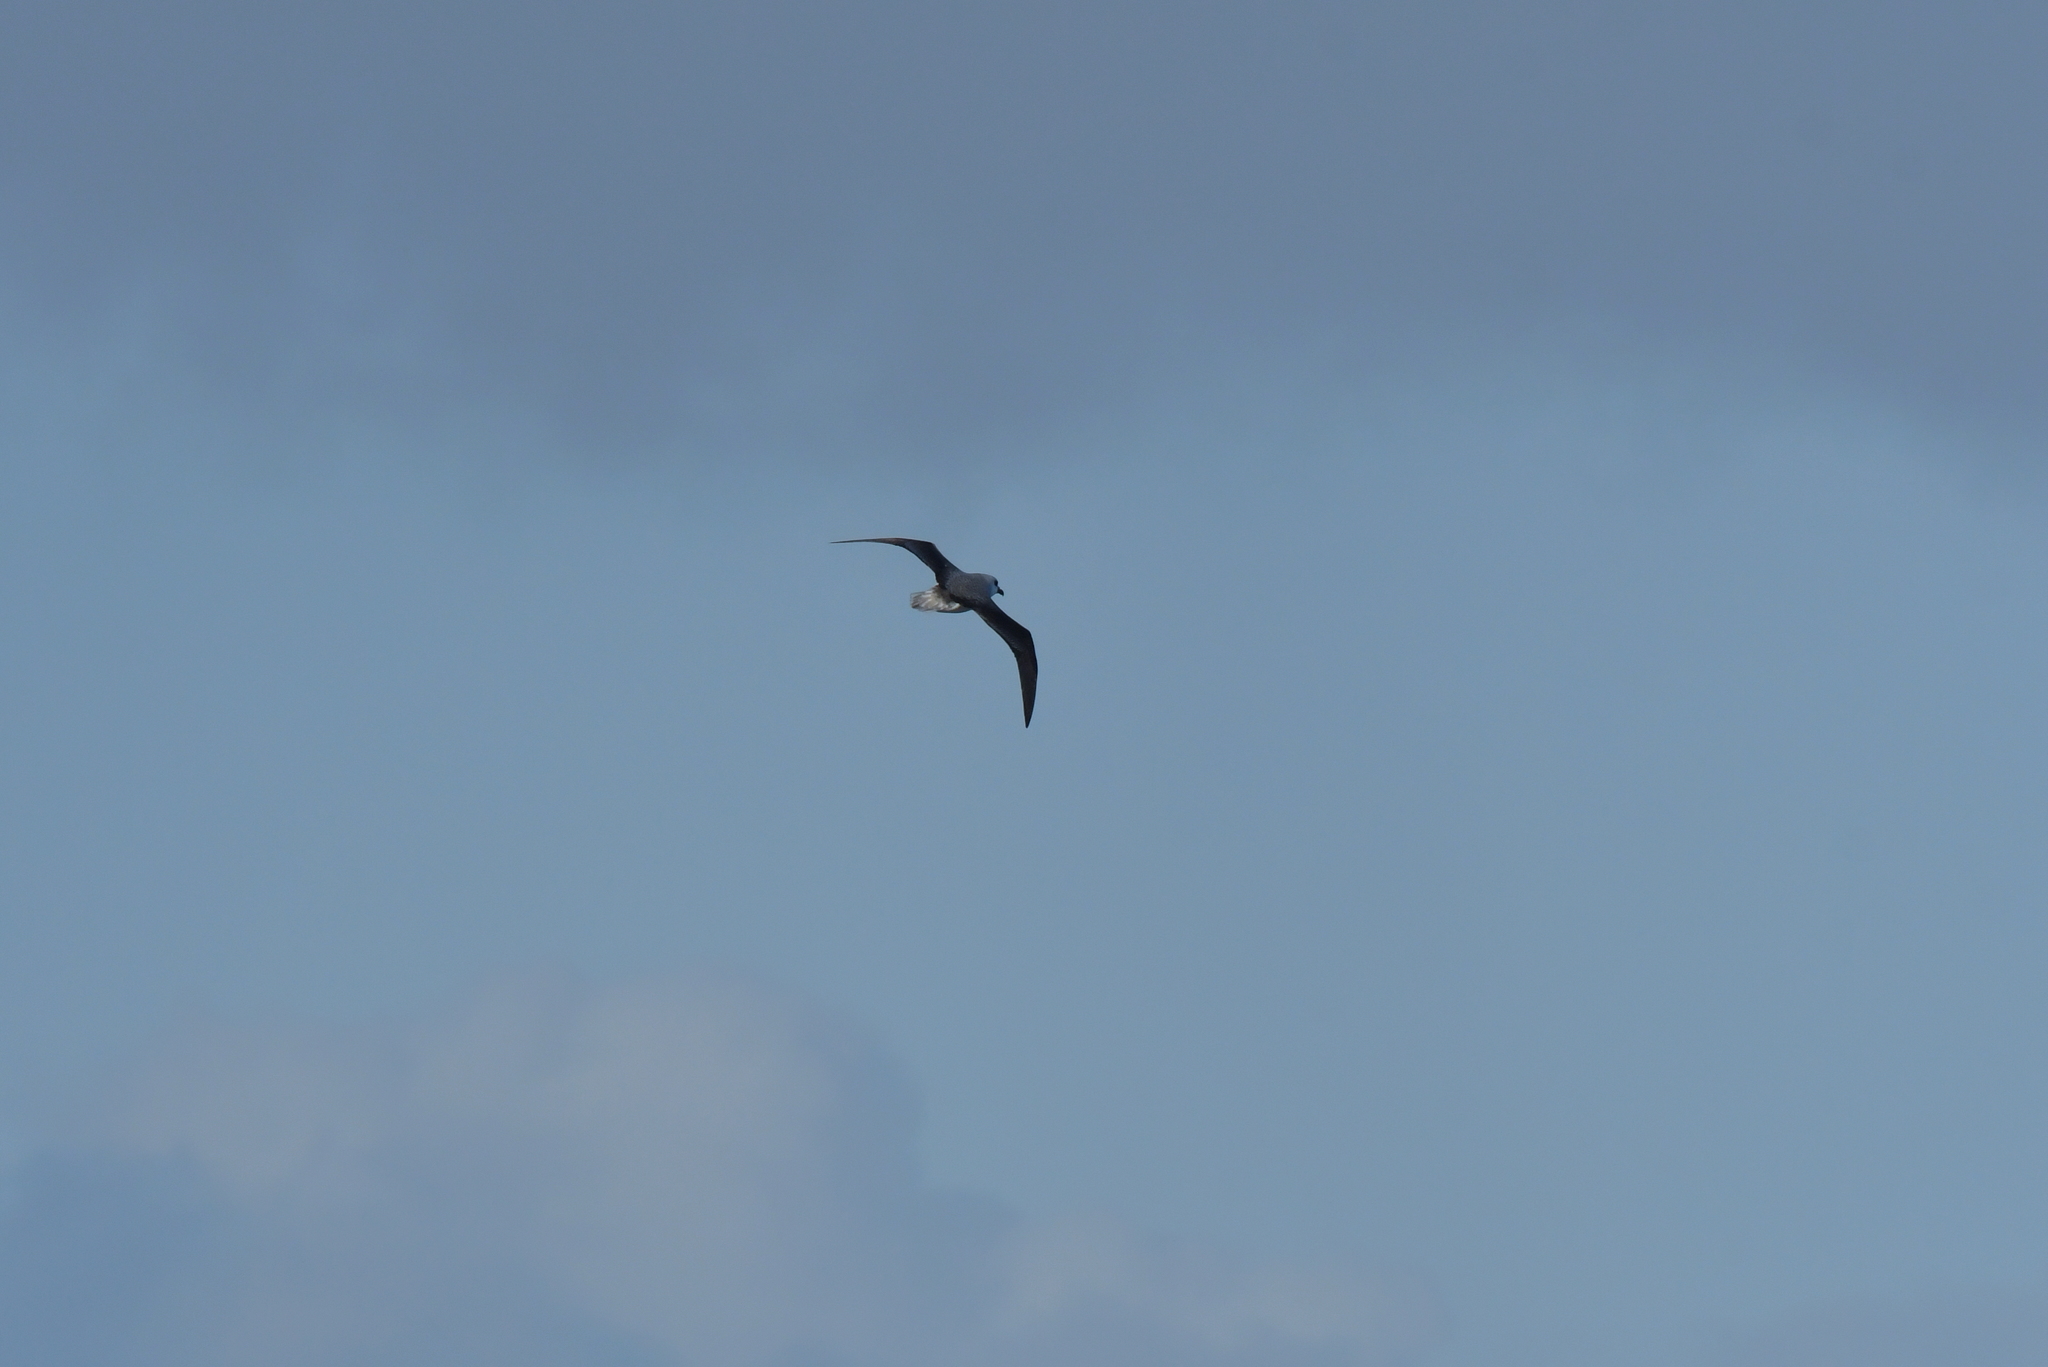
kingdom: Animalia
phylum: Chordata
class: Aves
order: Procellariiformes
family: Procellariidae
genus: Pterodroma
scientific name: Pterodroma lessonii
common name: White-headed petrel
